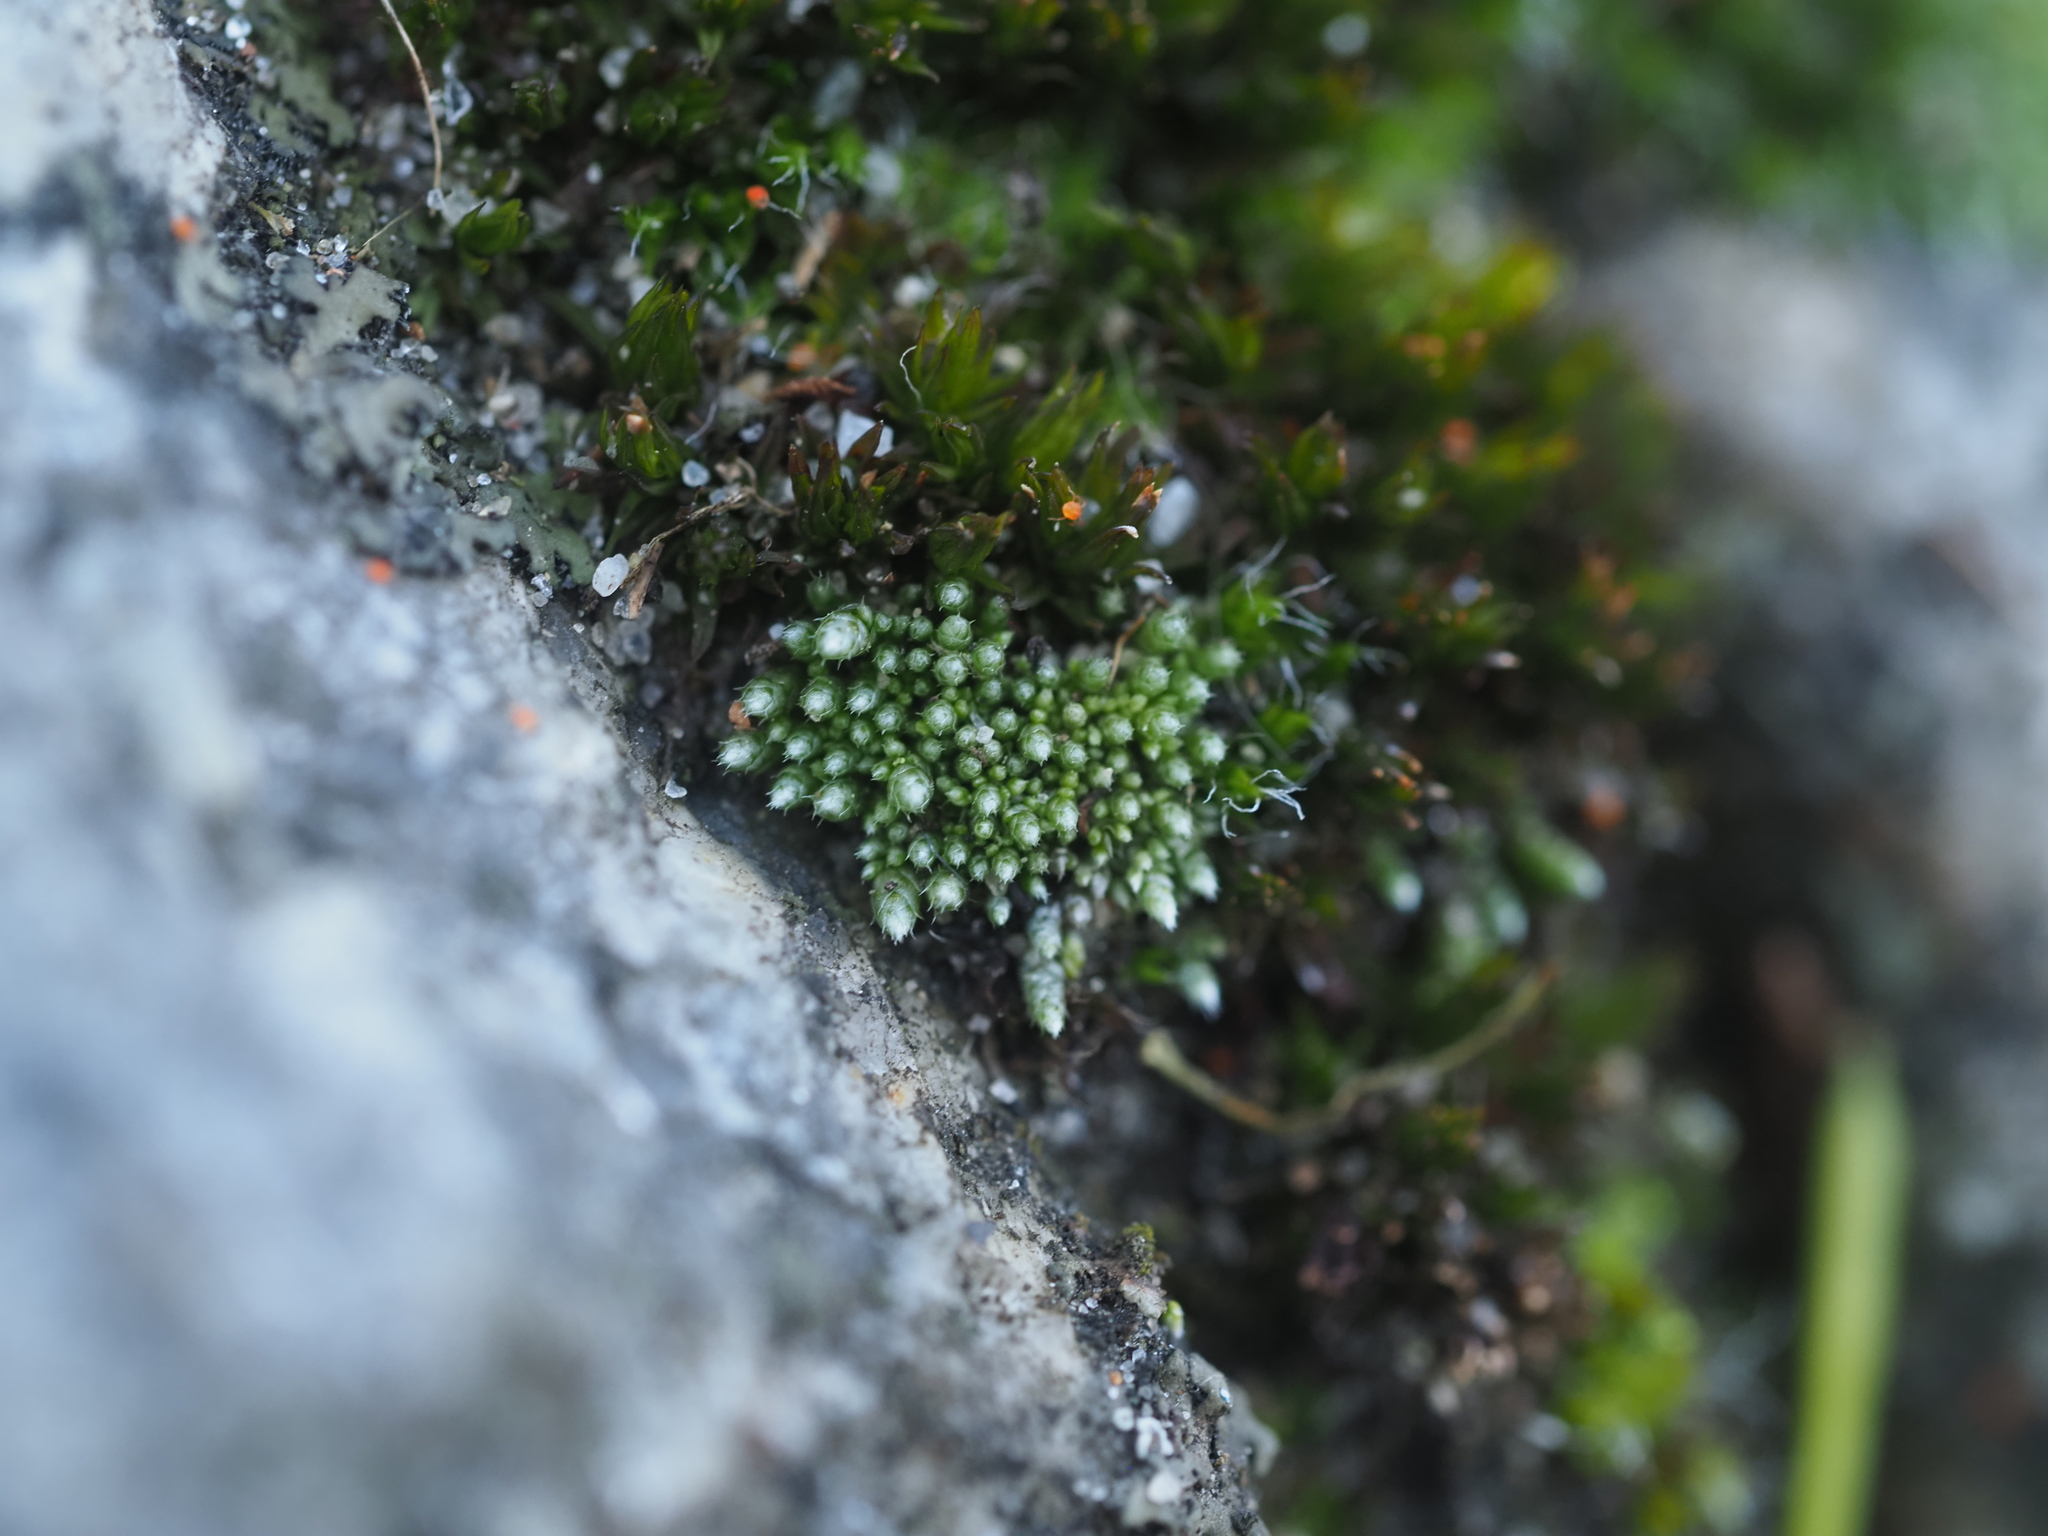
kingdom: Plantae
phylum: Bryophyta
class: Bryopsida
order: Bryales
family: Bryaceae
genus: Bryum
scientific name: Bryum argenteum
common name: Silver-moss
